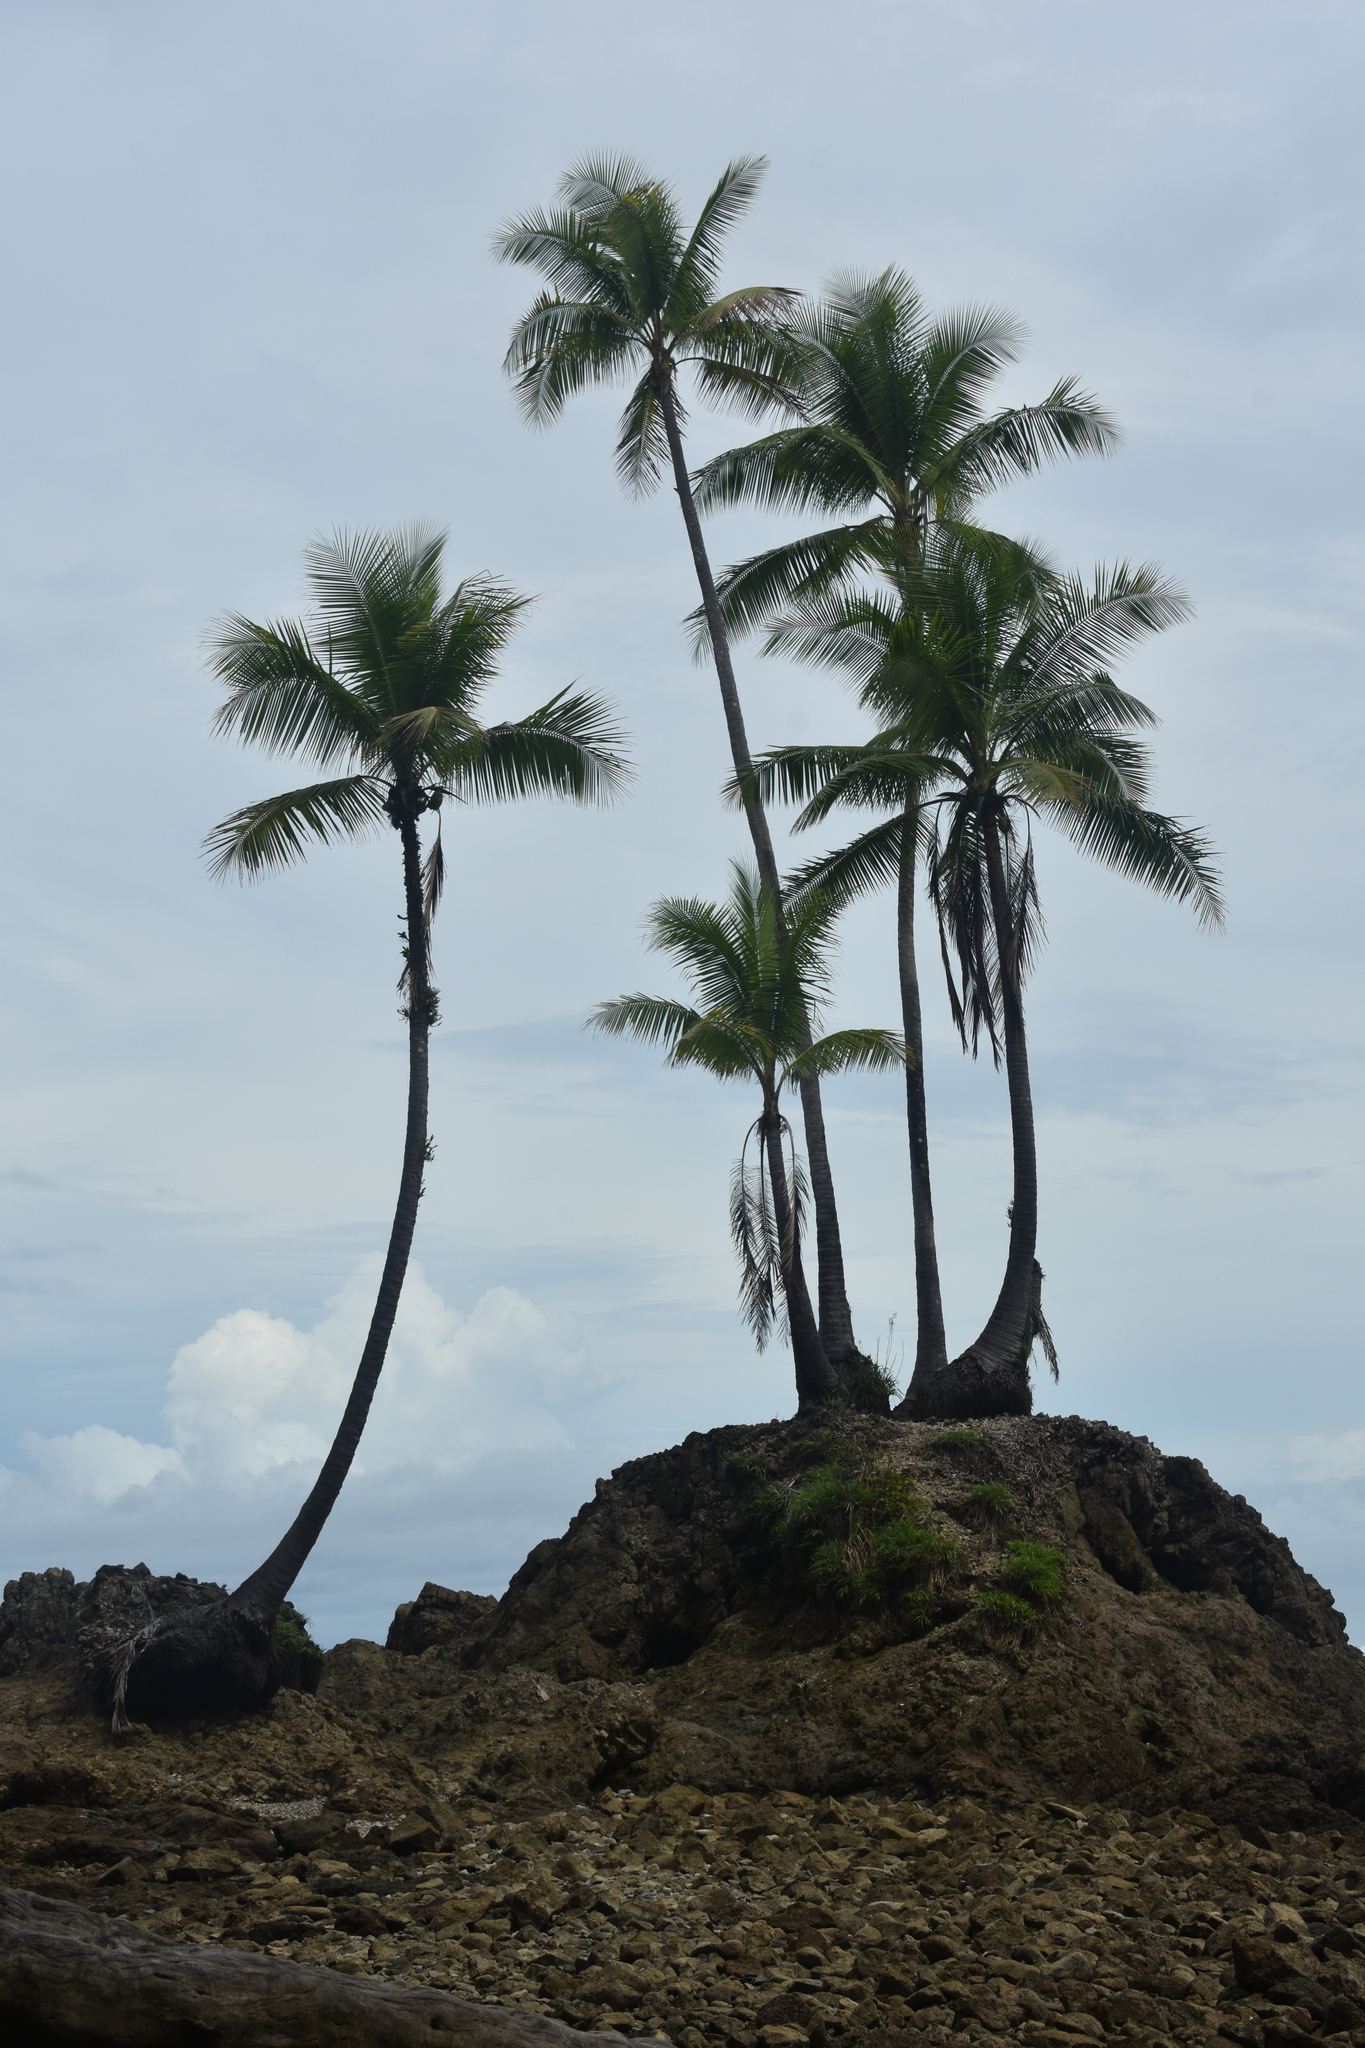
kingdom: Plantae
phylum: Tracheophyta
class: Liliopsida
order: Arecales
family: Arecaceae
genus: Cocos
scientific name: Cocos nucifera
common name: Coconut palm
